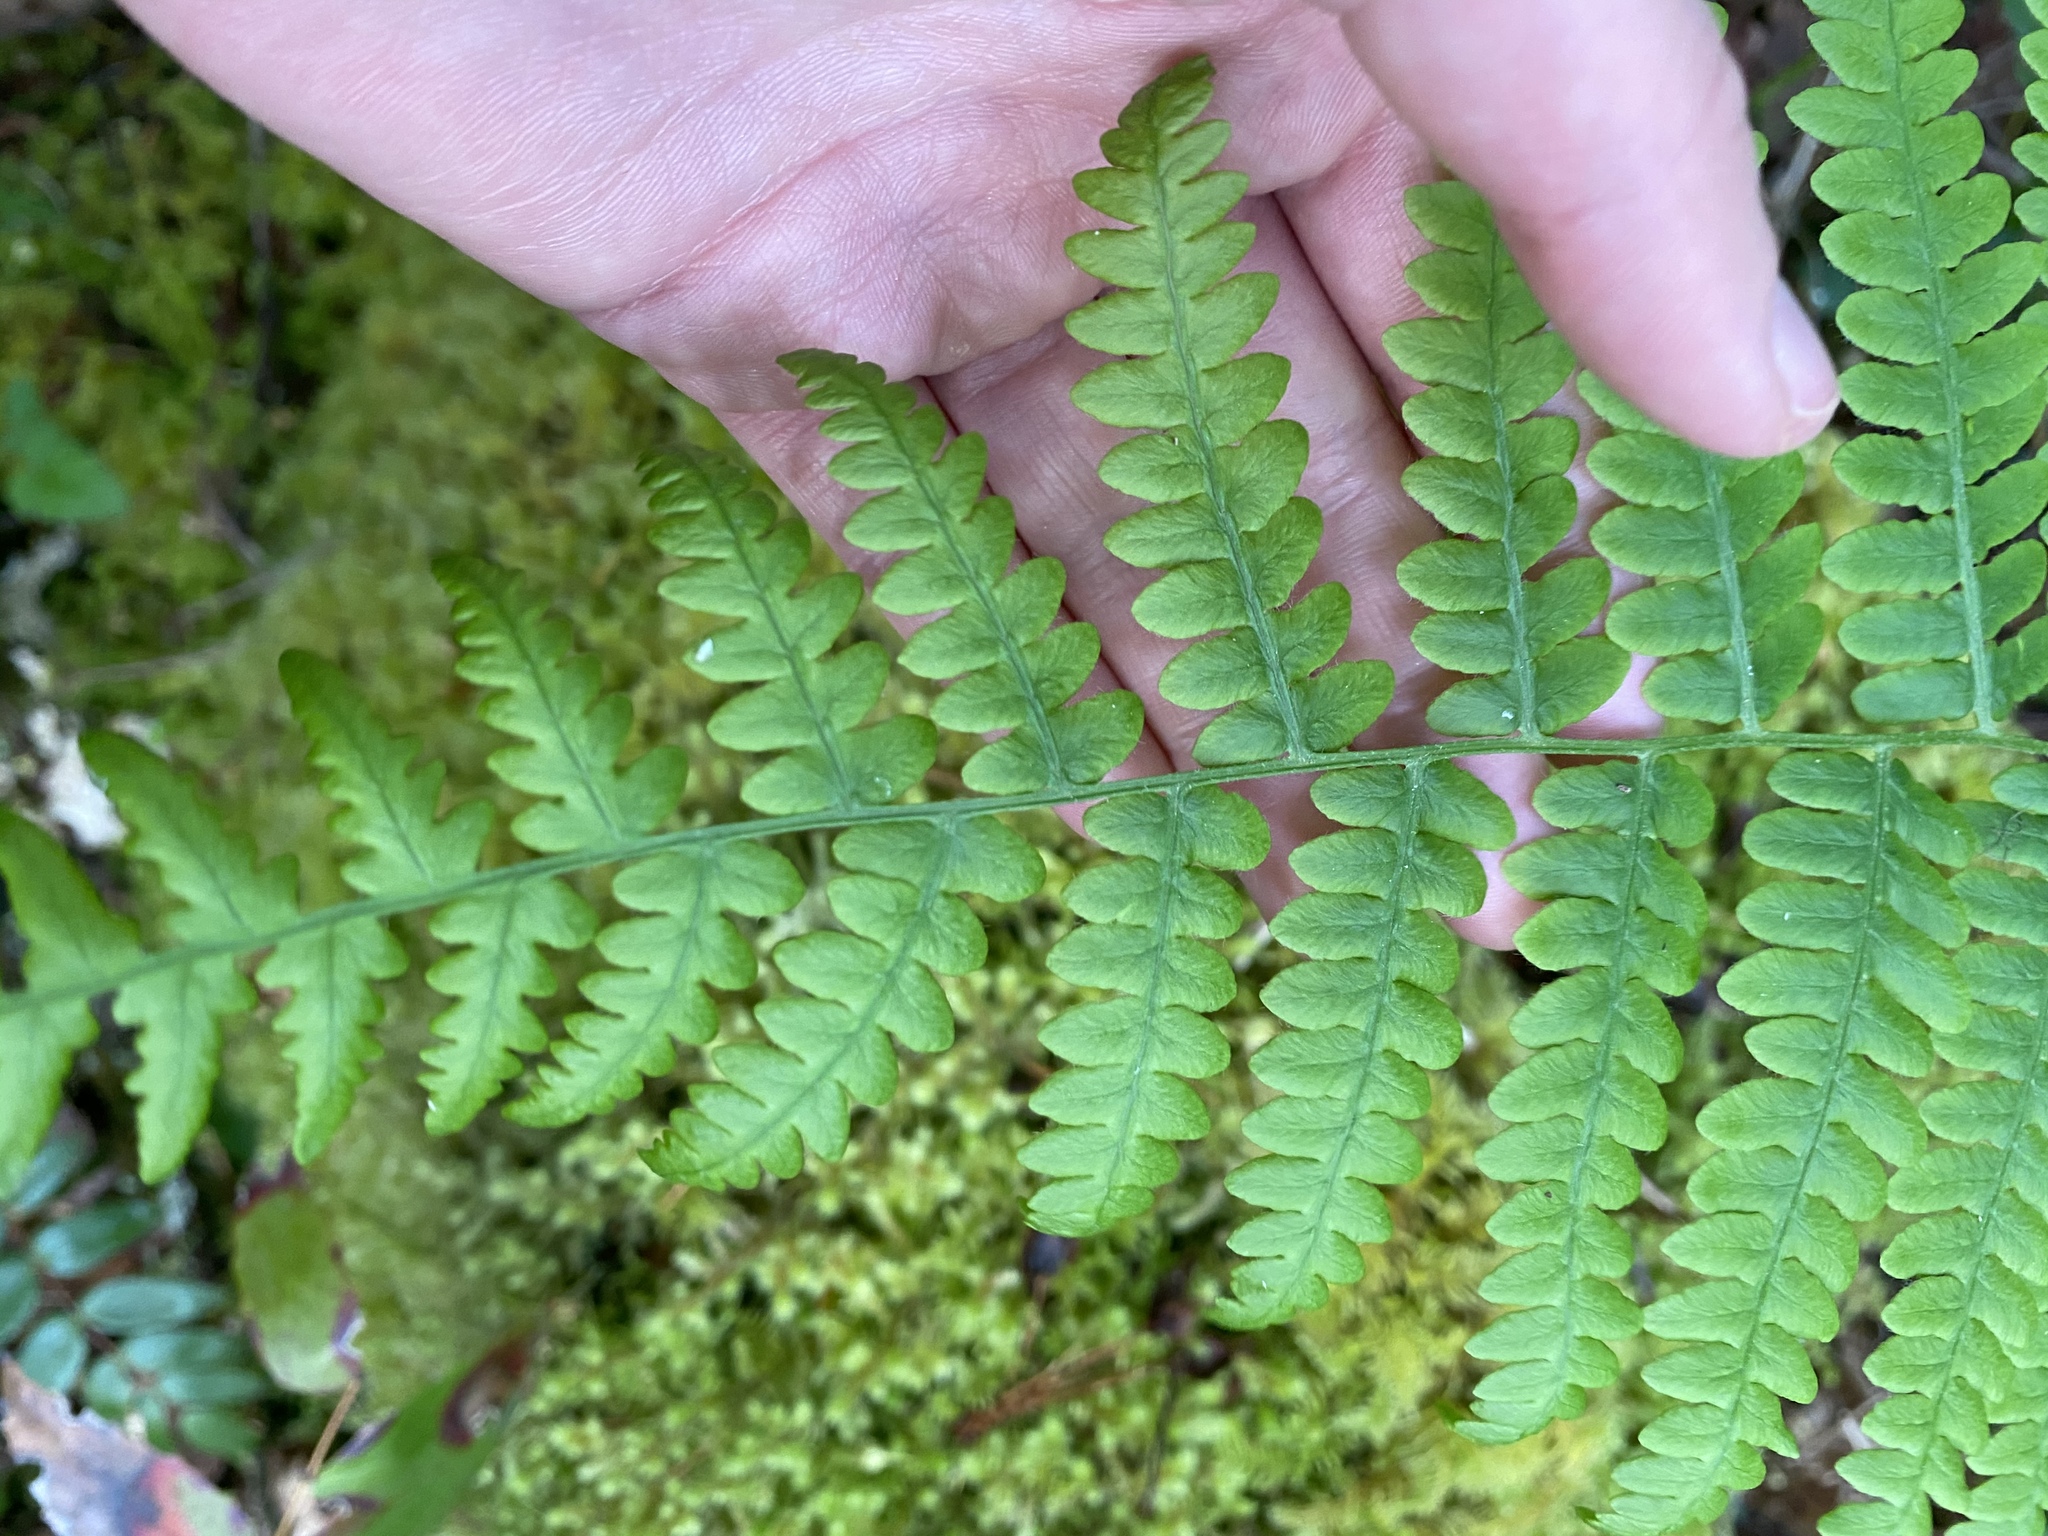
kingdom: Plantae
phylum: Tracheophyta
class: Polypodiopsida
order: Polypodiales
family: Dennstaedtiaceae
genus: Pteridium
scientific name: Pteridium aquilinum
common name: Bracken
